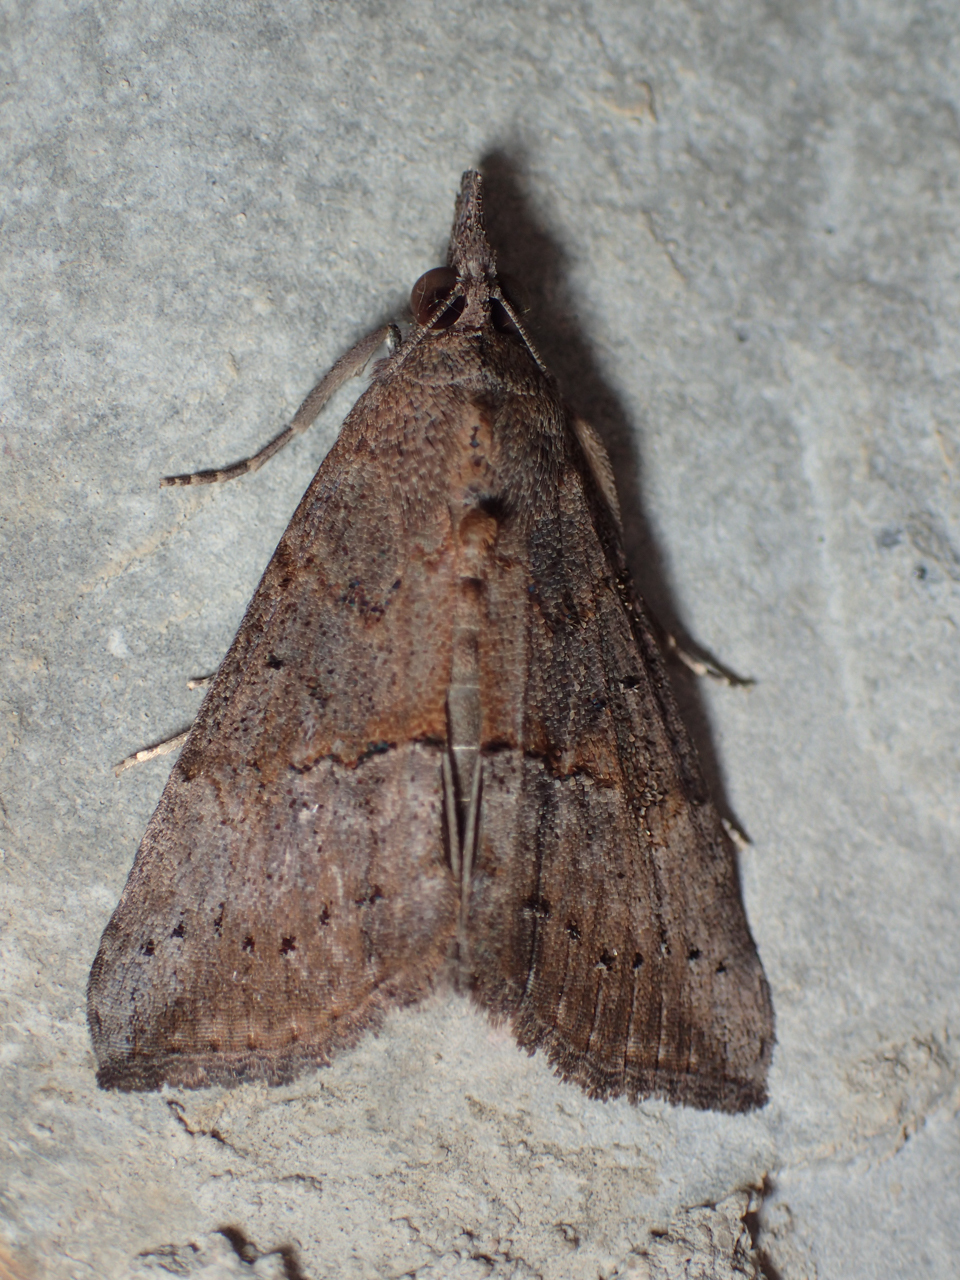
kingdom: Animalia
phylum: Arthropoda
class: Insecta
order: Lepidoptera
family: Erebidae
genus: Hypena
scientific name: Hypena scabra
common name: Green cloverworm
